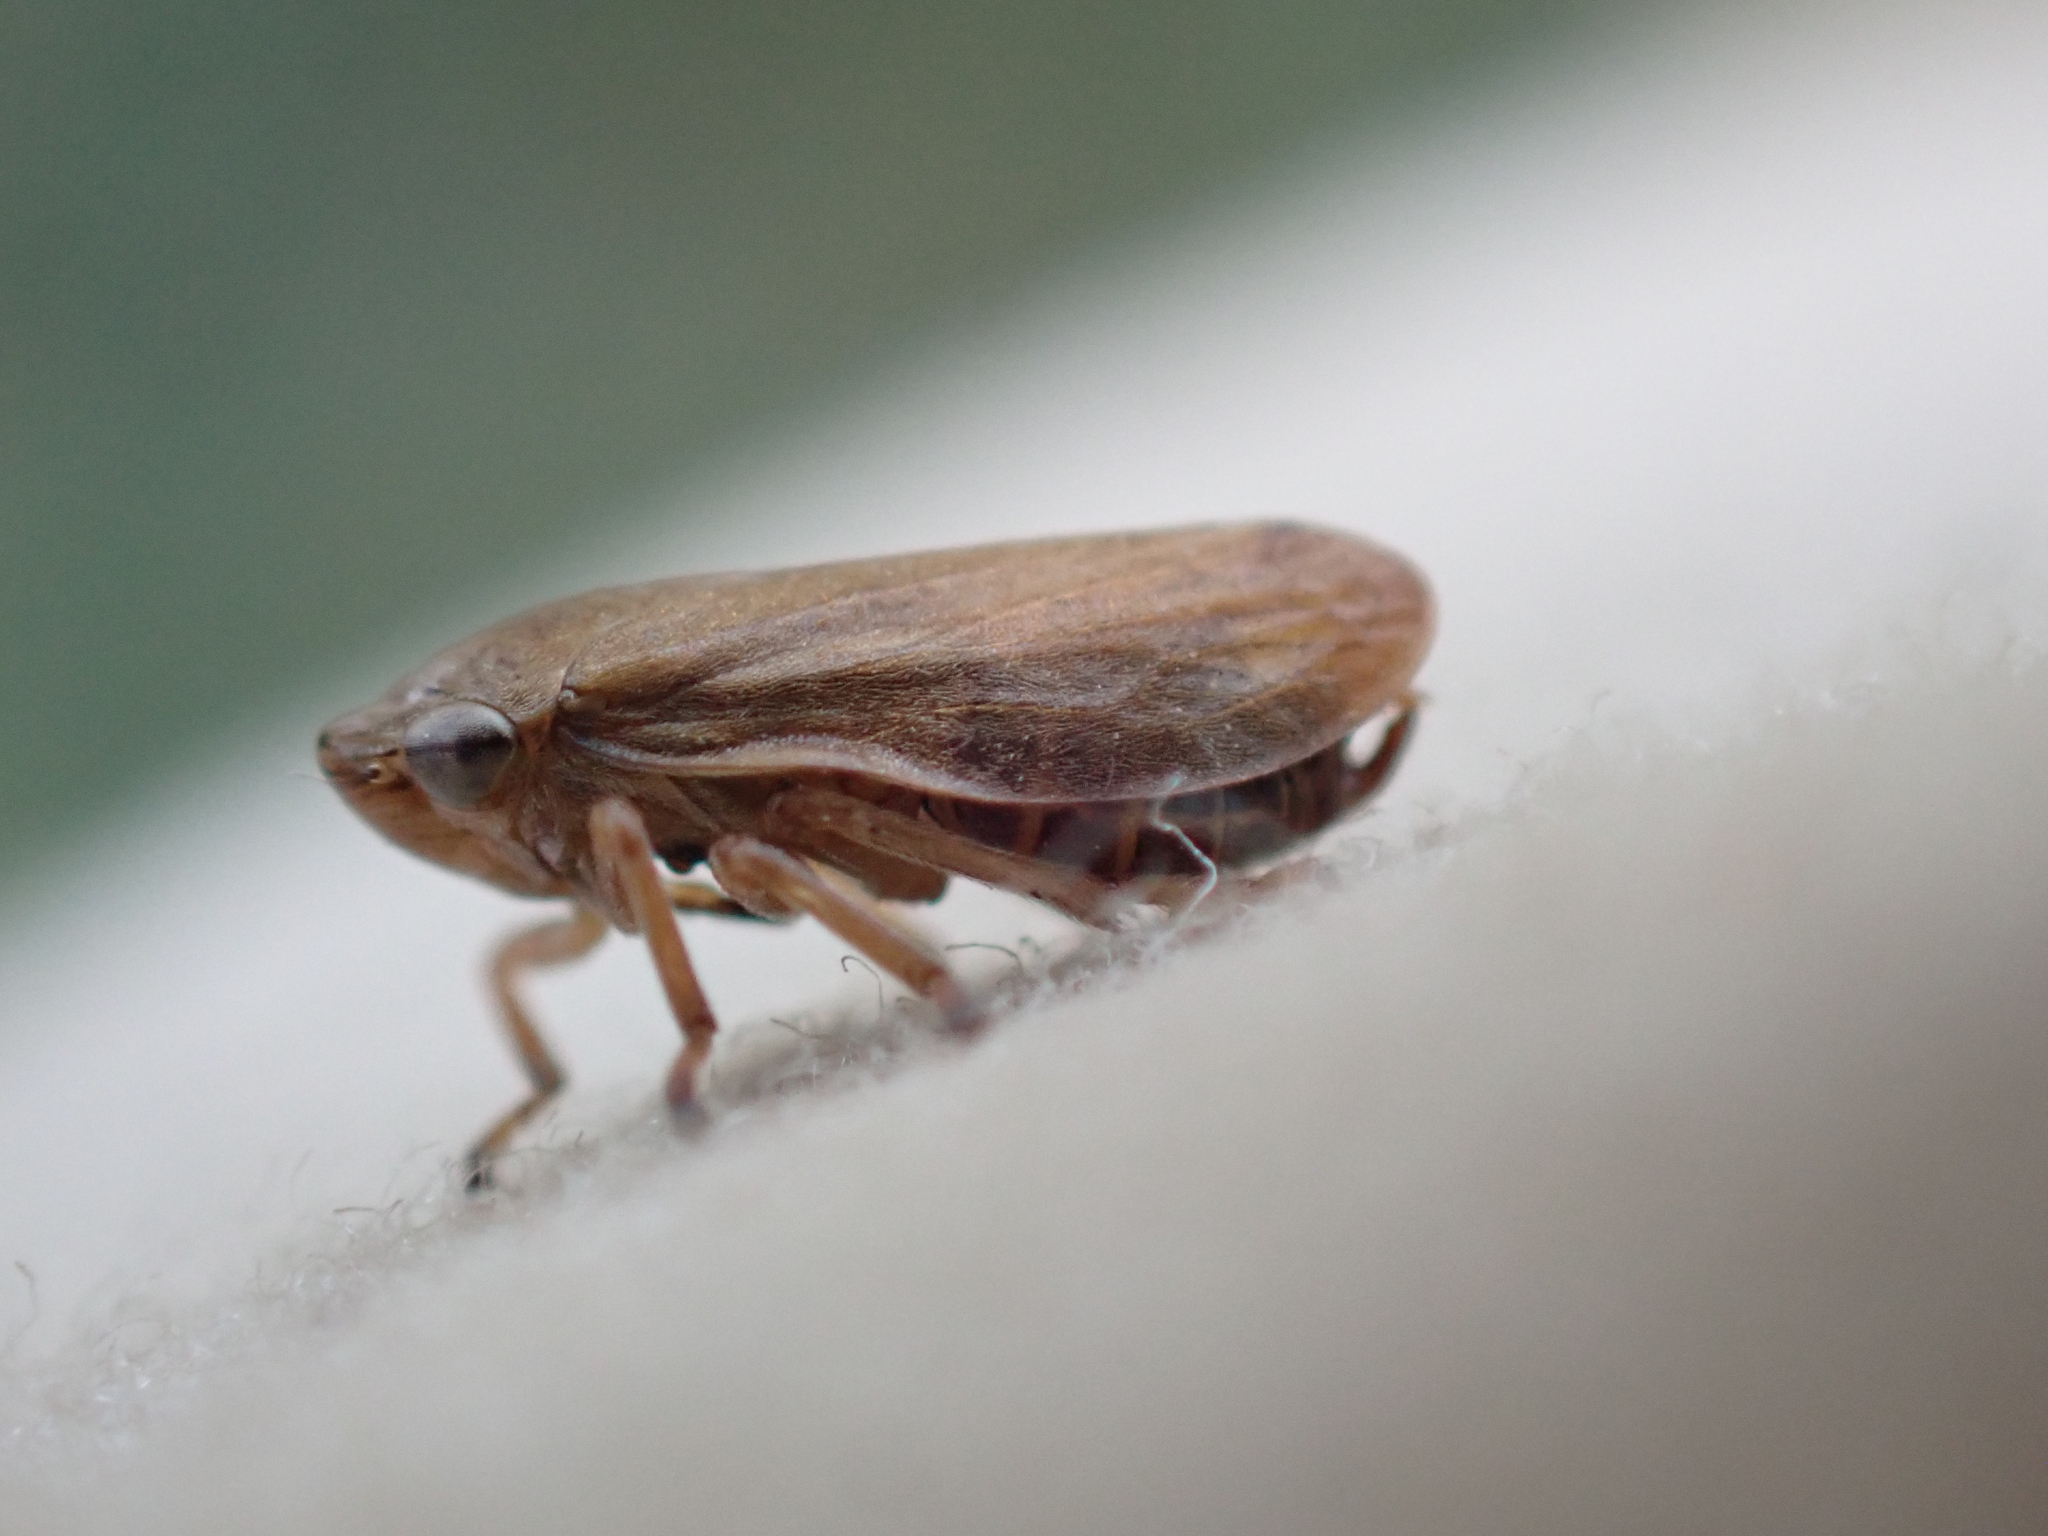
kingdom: Animalia
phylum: Arthropoda
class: Insecta
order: Hemiptera
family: Aphrophoridae
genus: Philaenus
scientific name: Philaenus spumarius
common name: Meadow spittlebug
